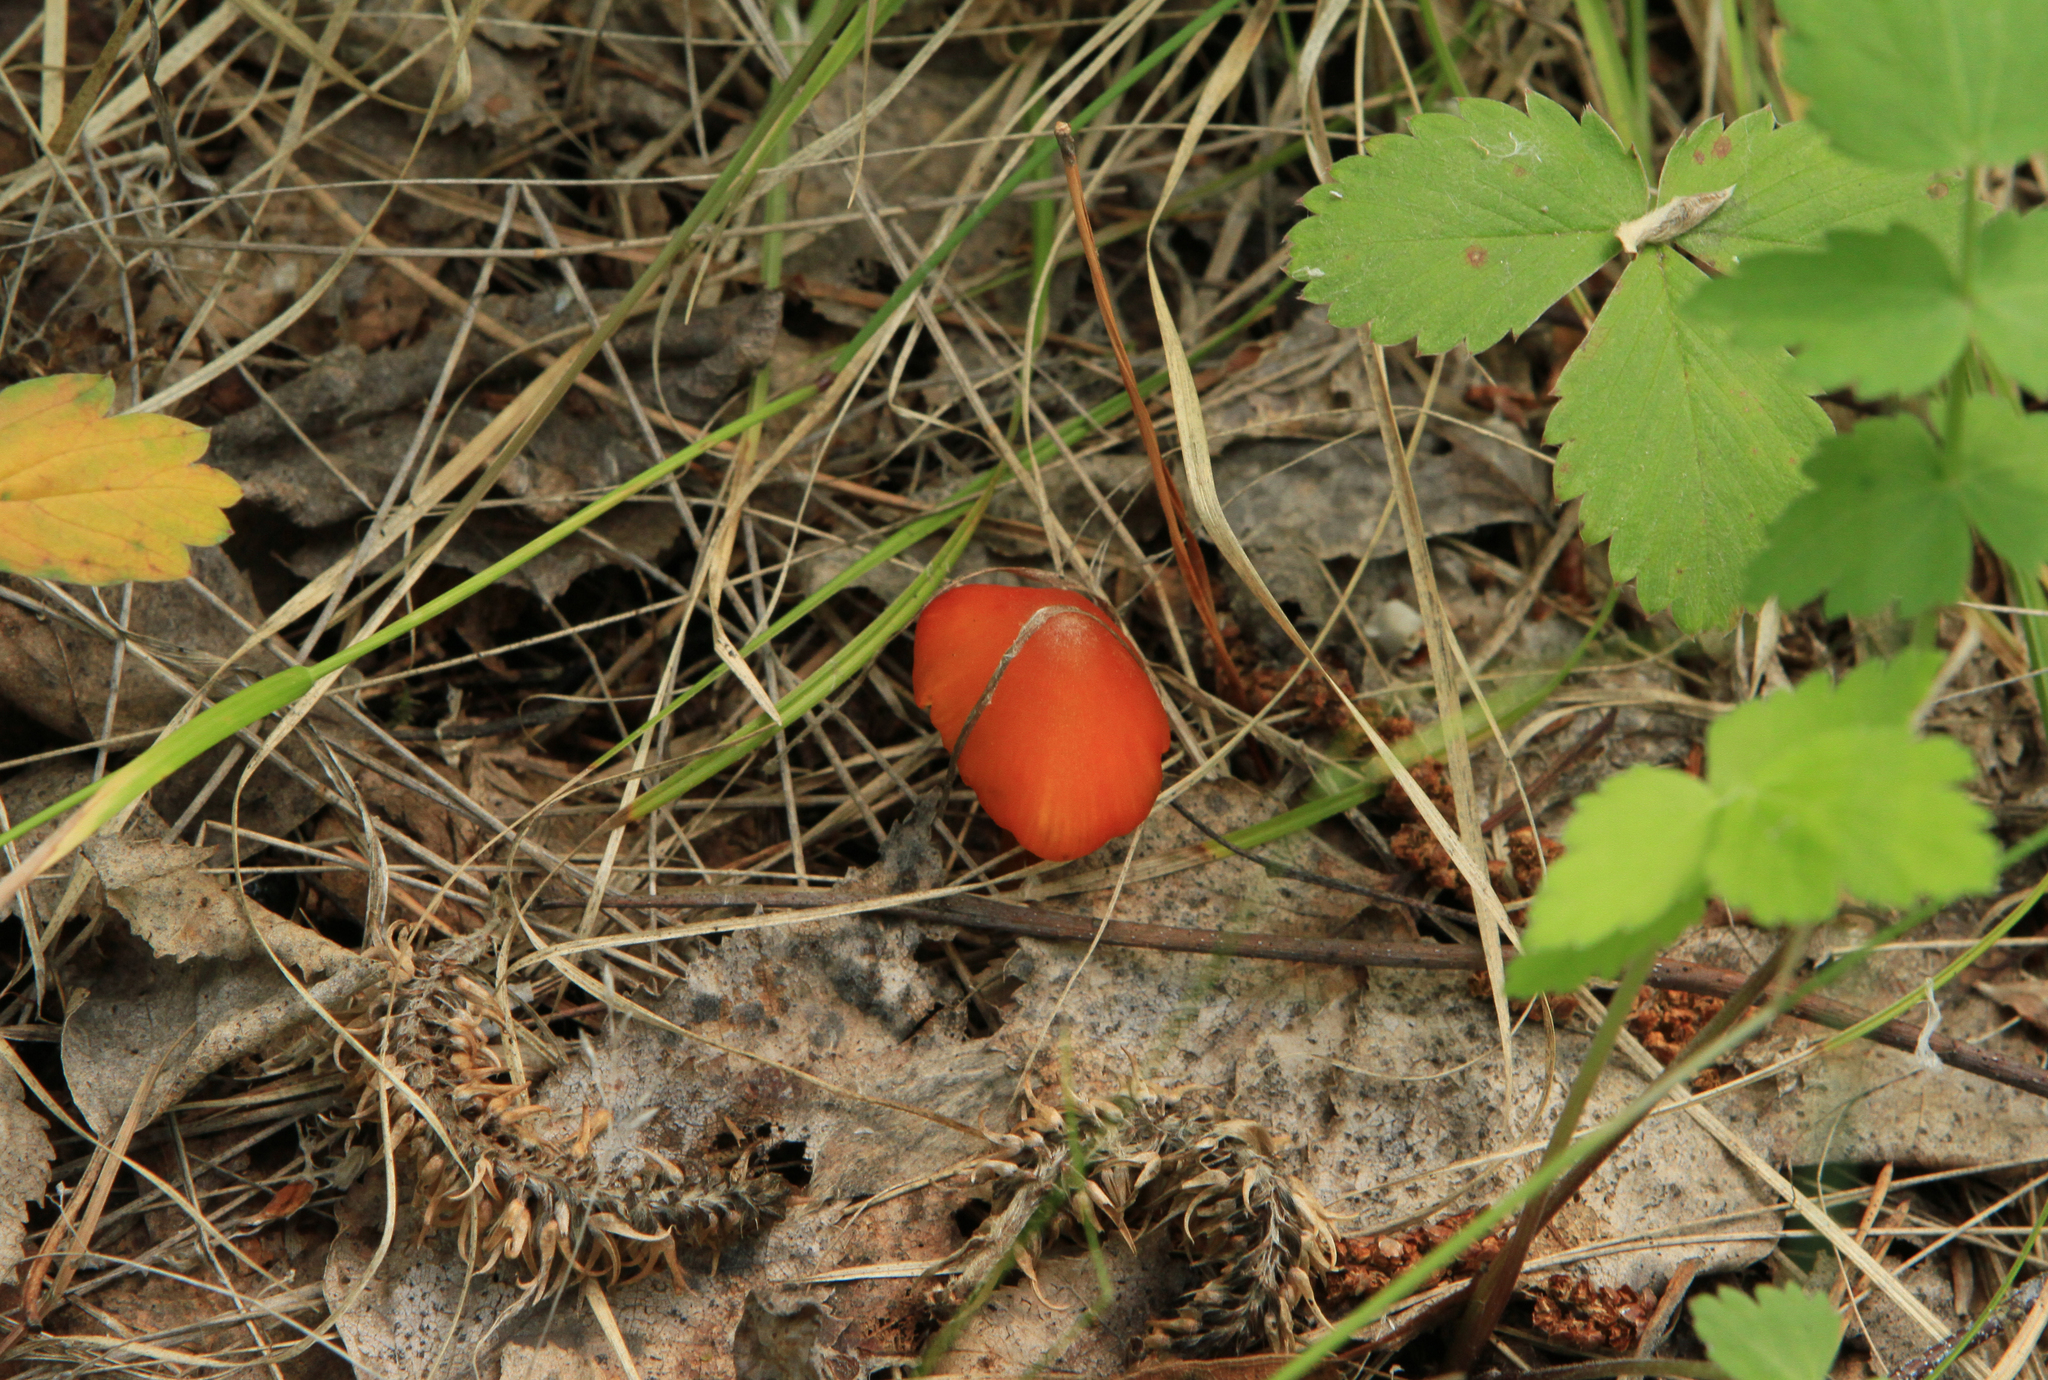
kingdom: Fungi
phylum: Basidiomycota
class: Agaricomycetes
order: Agaricales
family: Hygrophoraceae
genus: Hygrocybe
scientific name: Hygrocybe conica
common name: Blackening wax-cap
